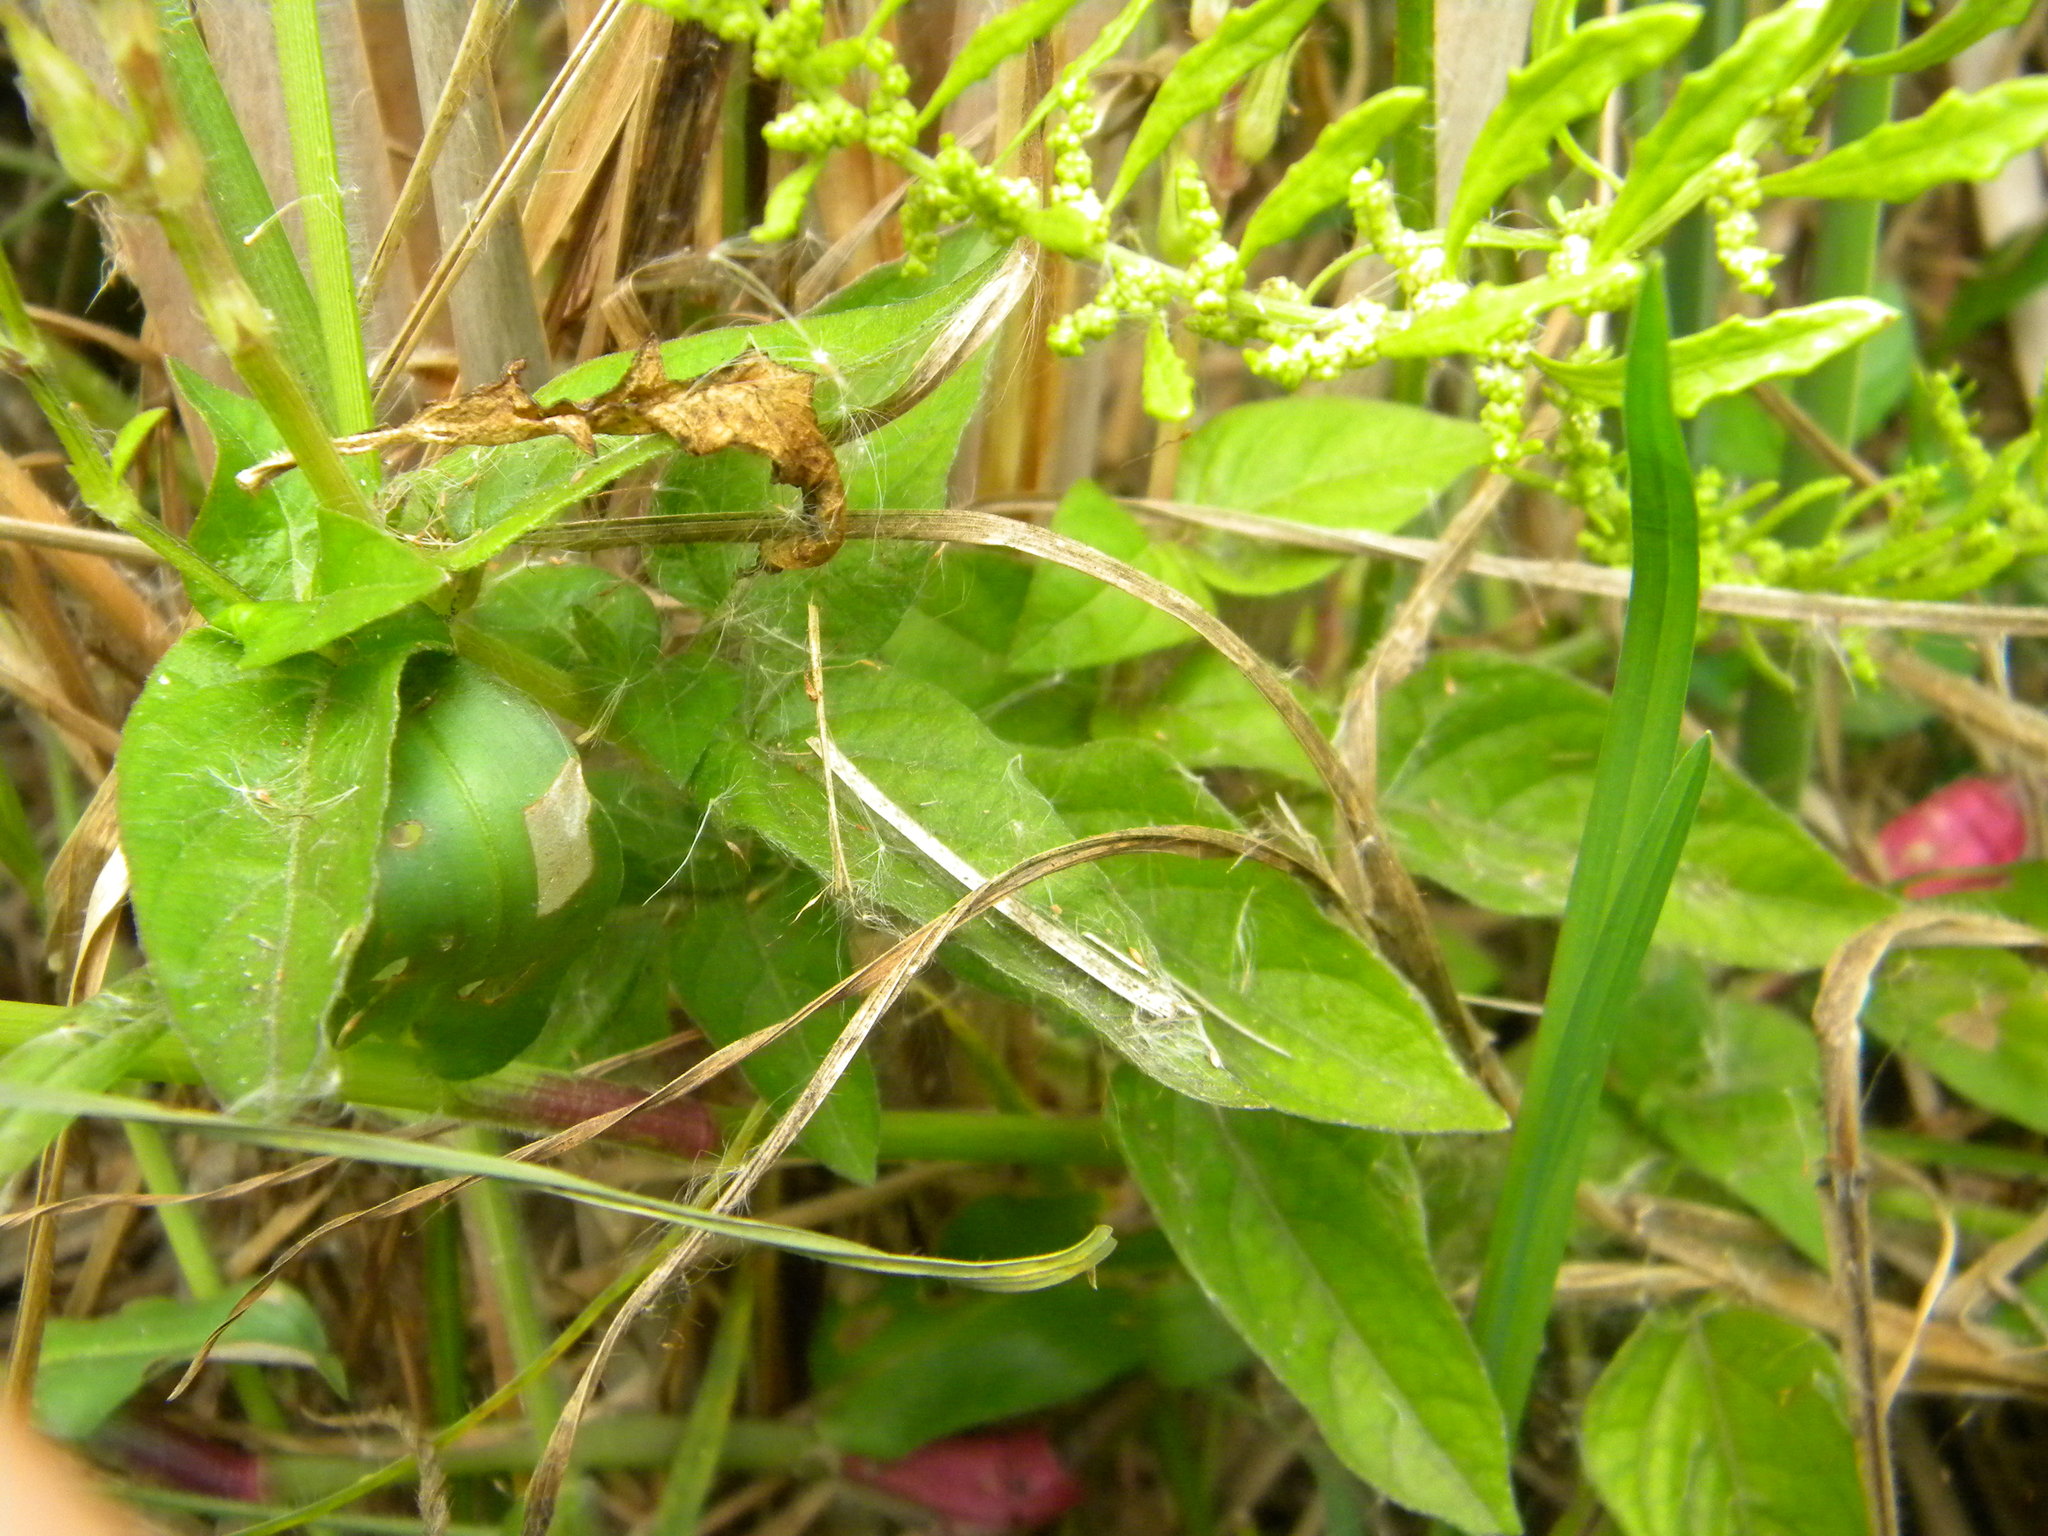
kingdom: Plantae
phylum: Tracheophyta
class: Magnoliopsida
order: Lamiales
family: Acanthaceae
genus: Asystasia
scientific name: Asystasia intrusa
